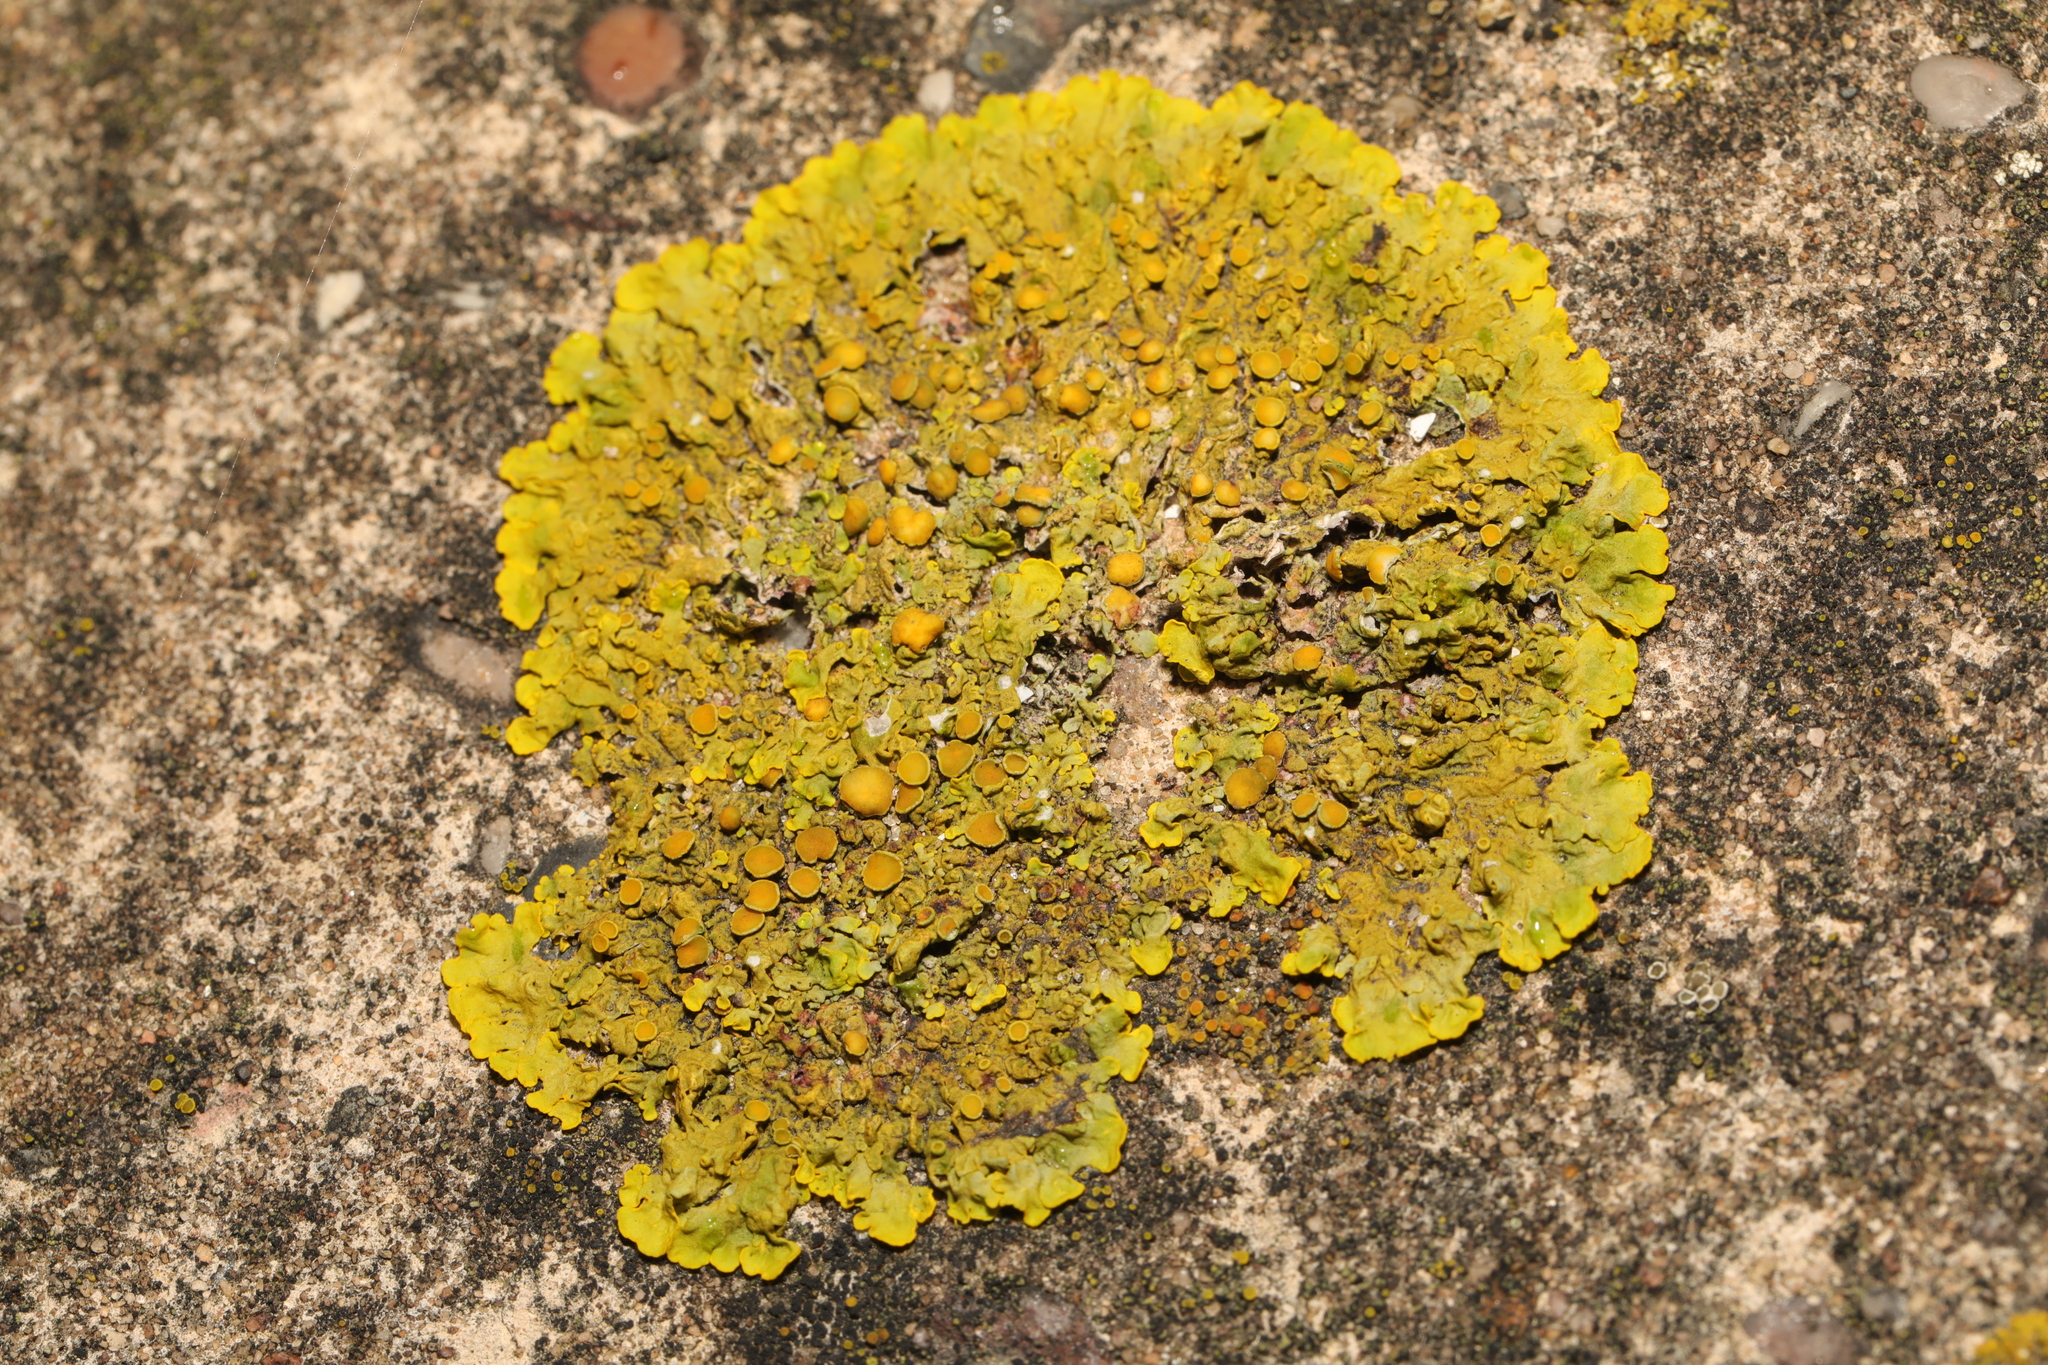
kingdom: Fungi
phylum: Ascomycota
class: Lecanoromycetes
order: Teloschistales
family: Teloschistaceae
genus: Xanthoria
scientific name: Xanthoria parietina
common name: Common orange lichen
